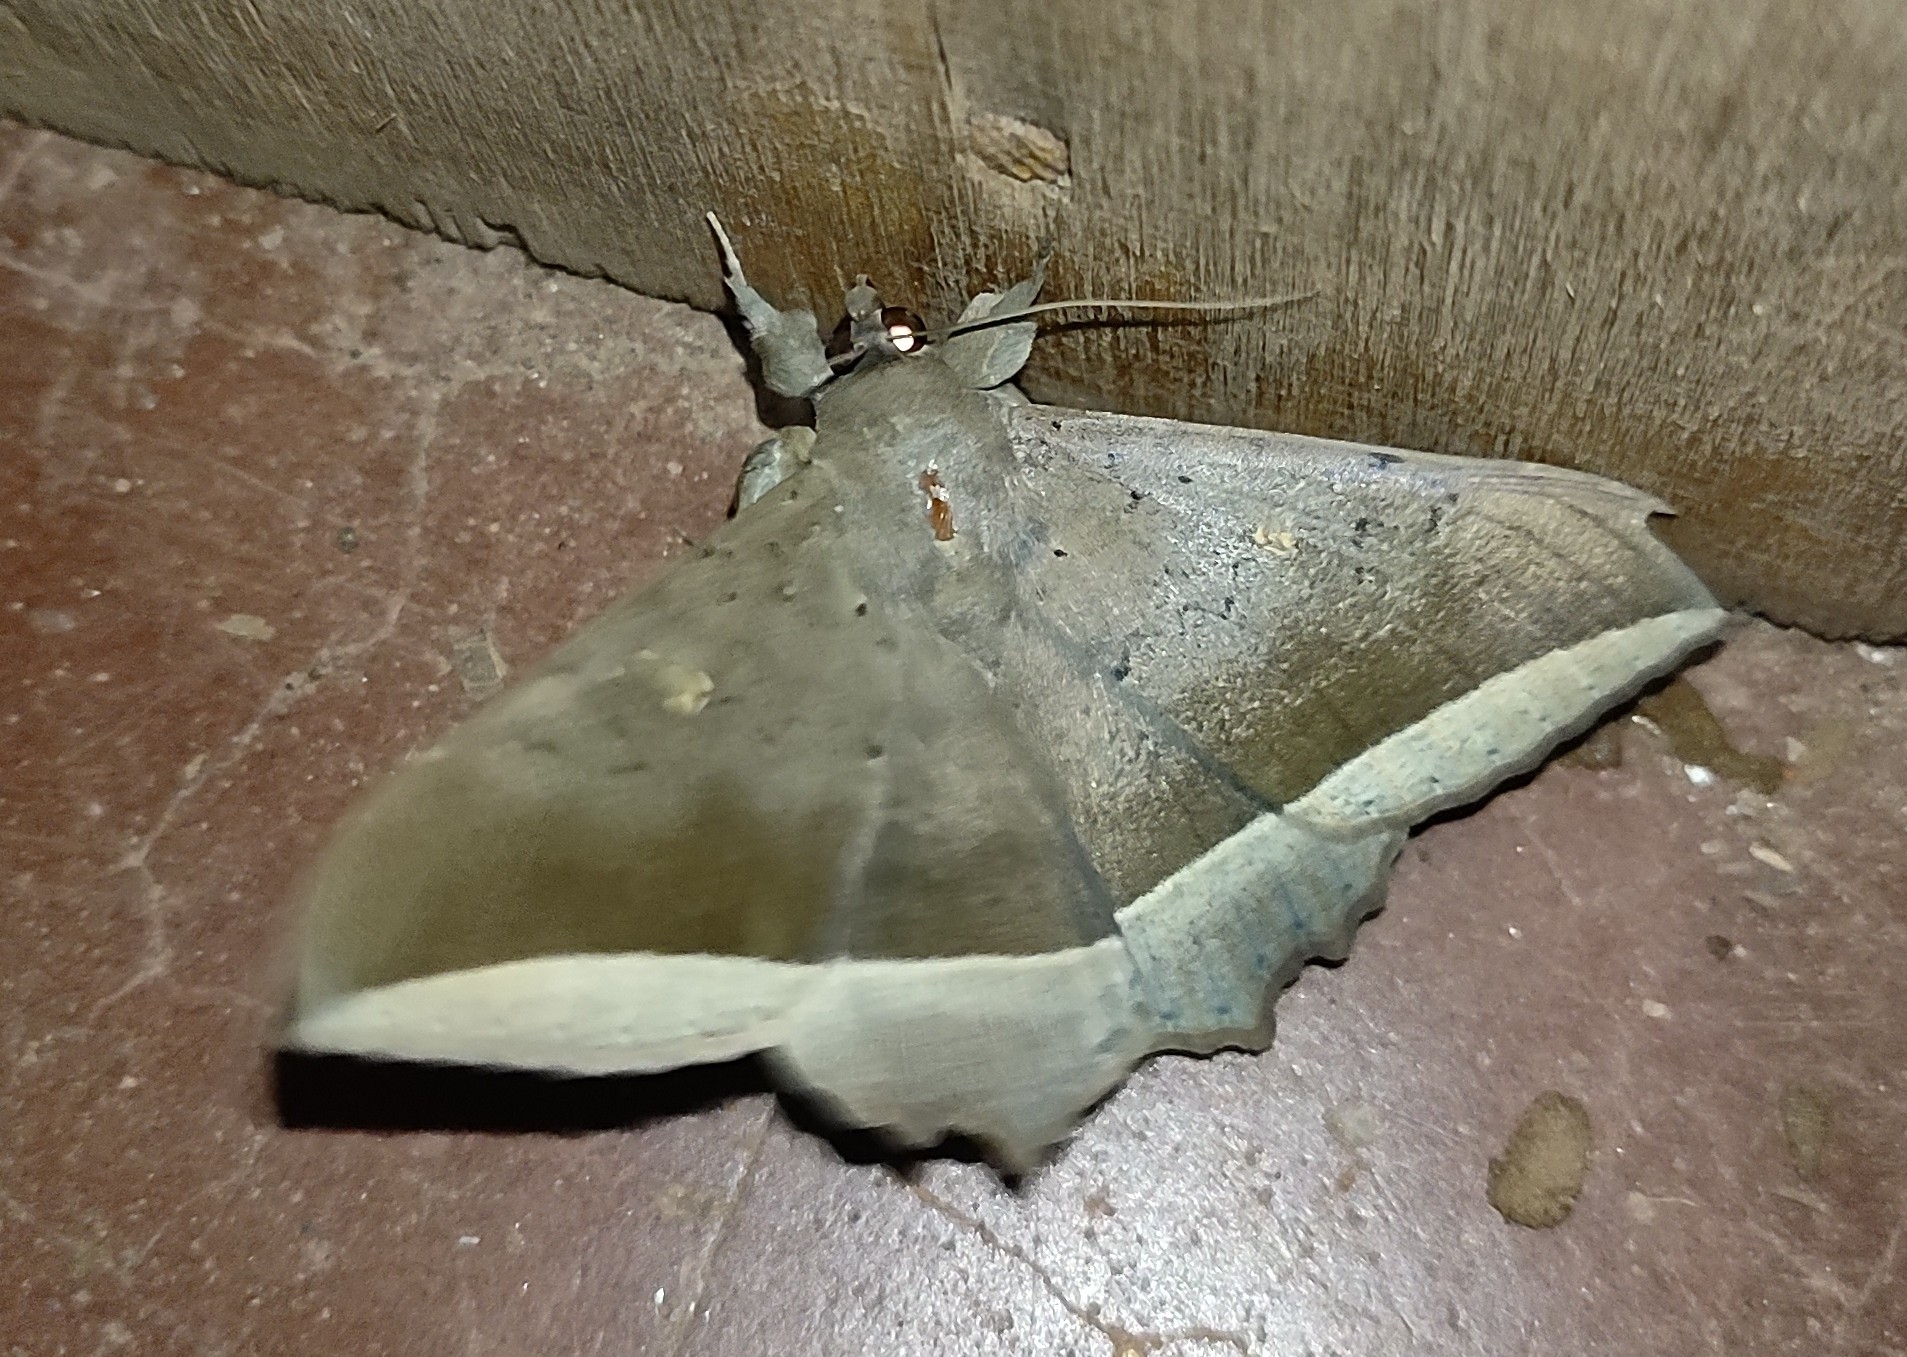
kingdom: Animalia
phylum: Arthropoda
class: Insecta
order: Lepidoptera
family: Erebidae
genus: Hulodes
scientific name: Hulodes caranea
